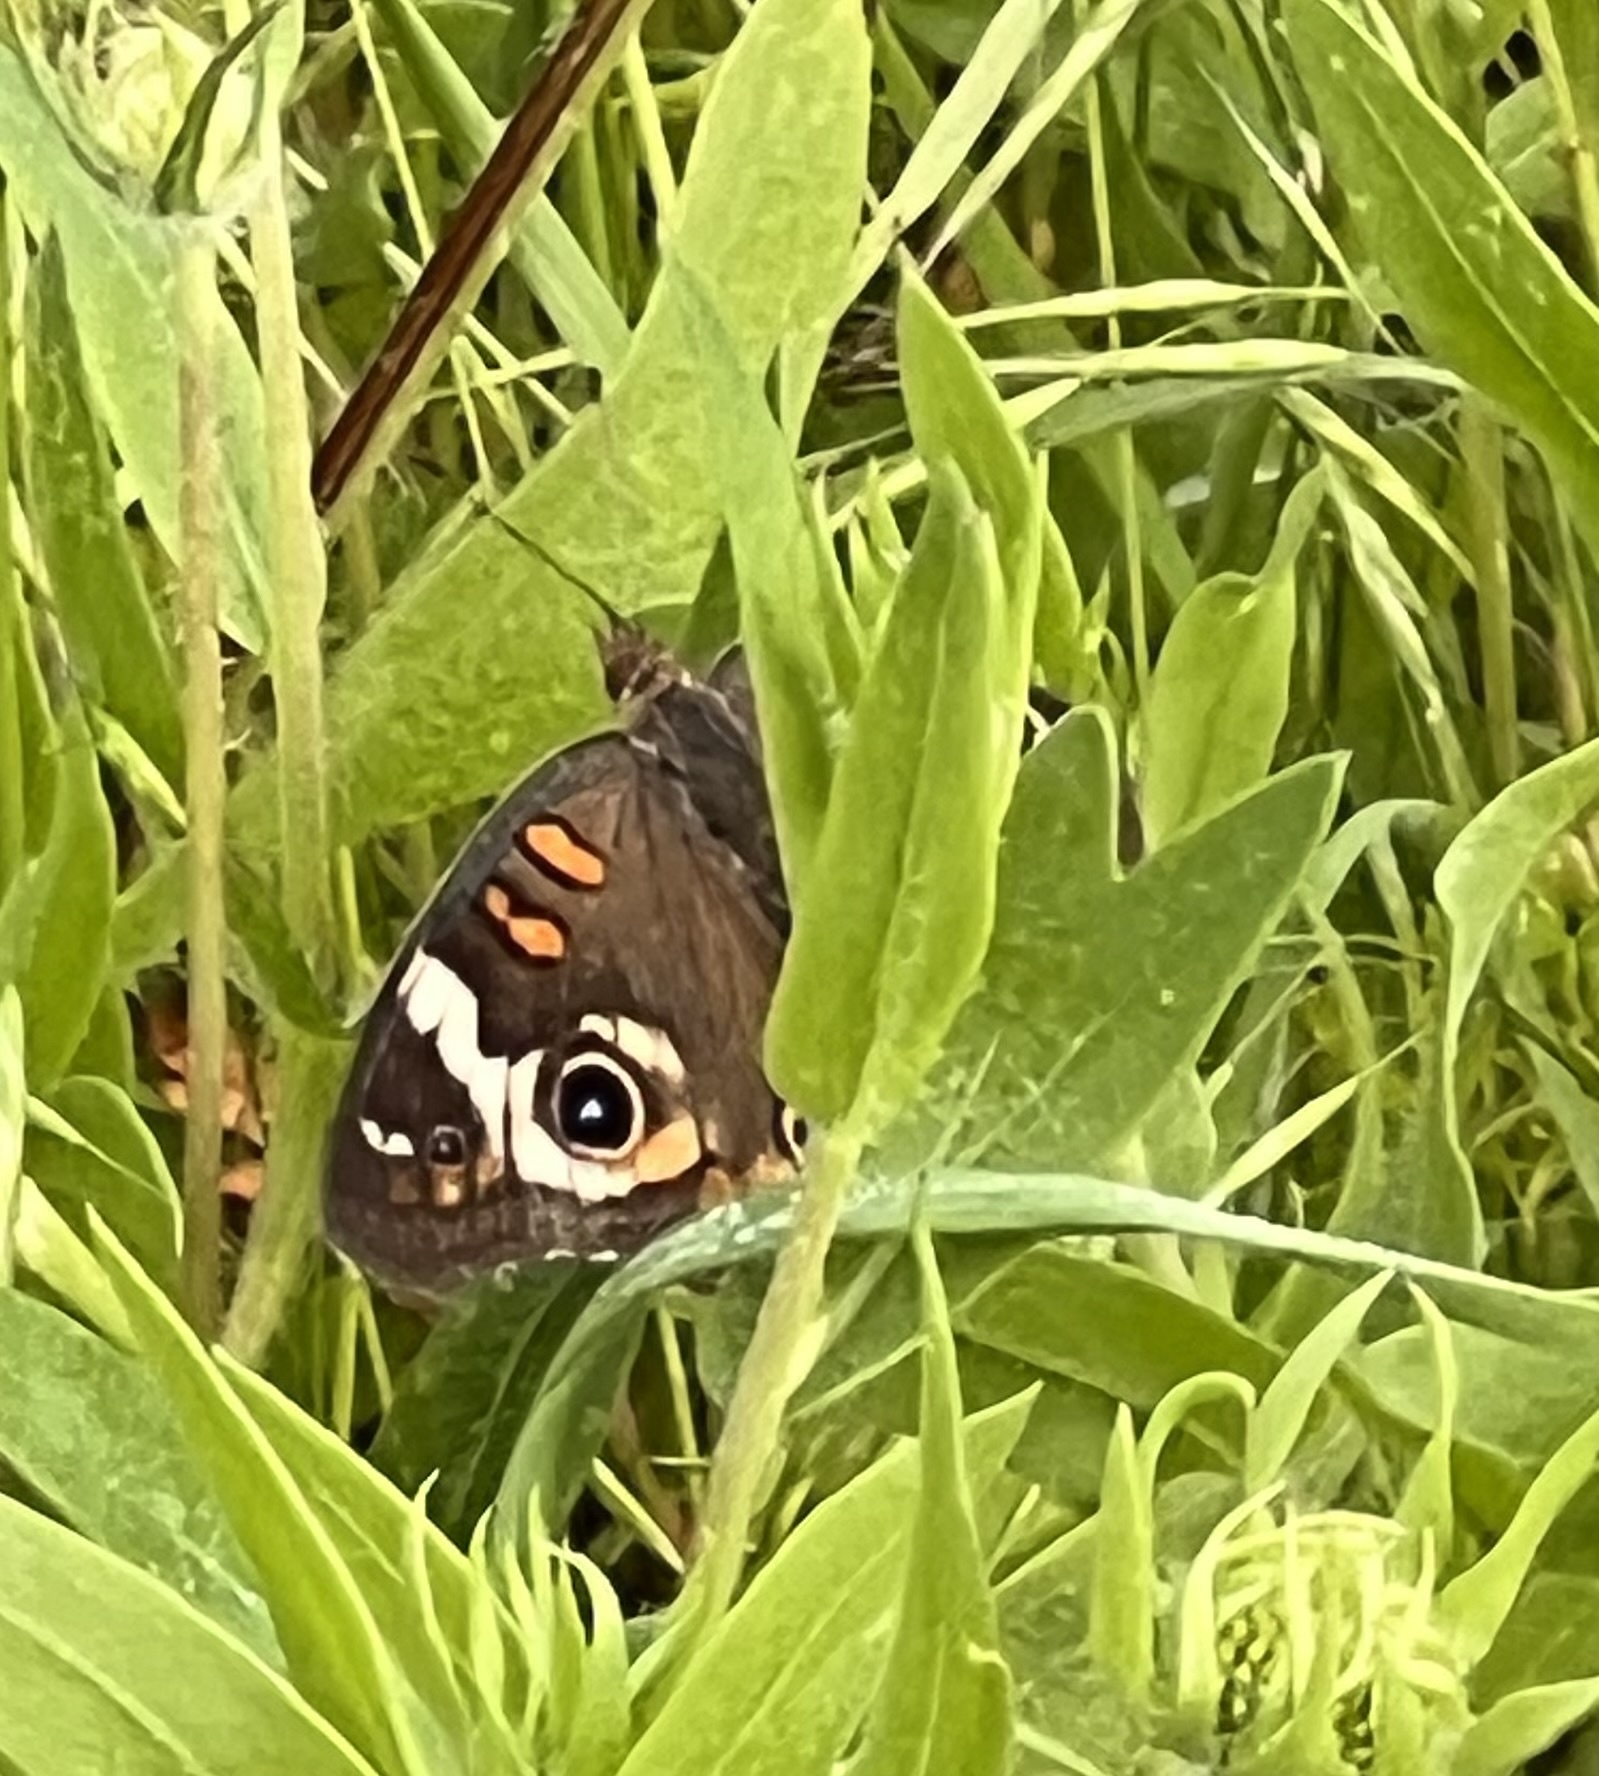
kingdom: Animalia
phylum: Arthropoda
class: Insecta
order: Lepidoptera
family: Nymphalidae
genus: Junonia
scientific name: Junonia coenia
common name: Common buckeye
